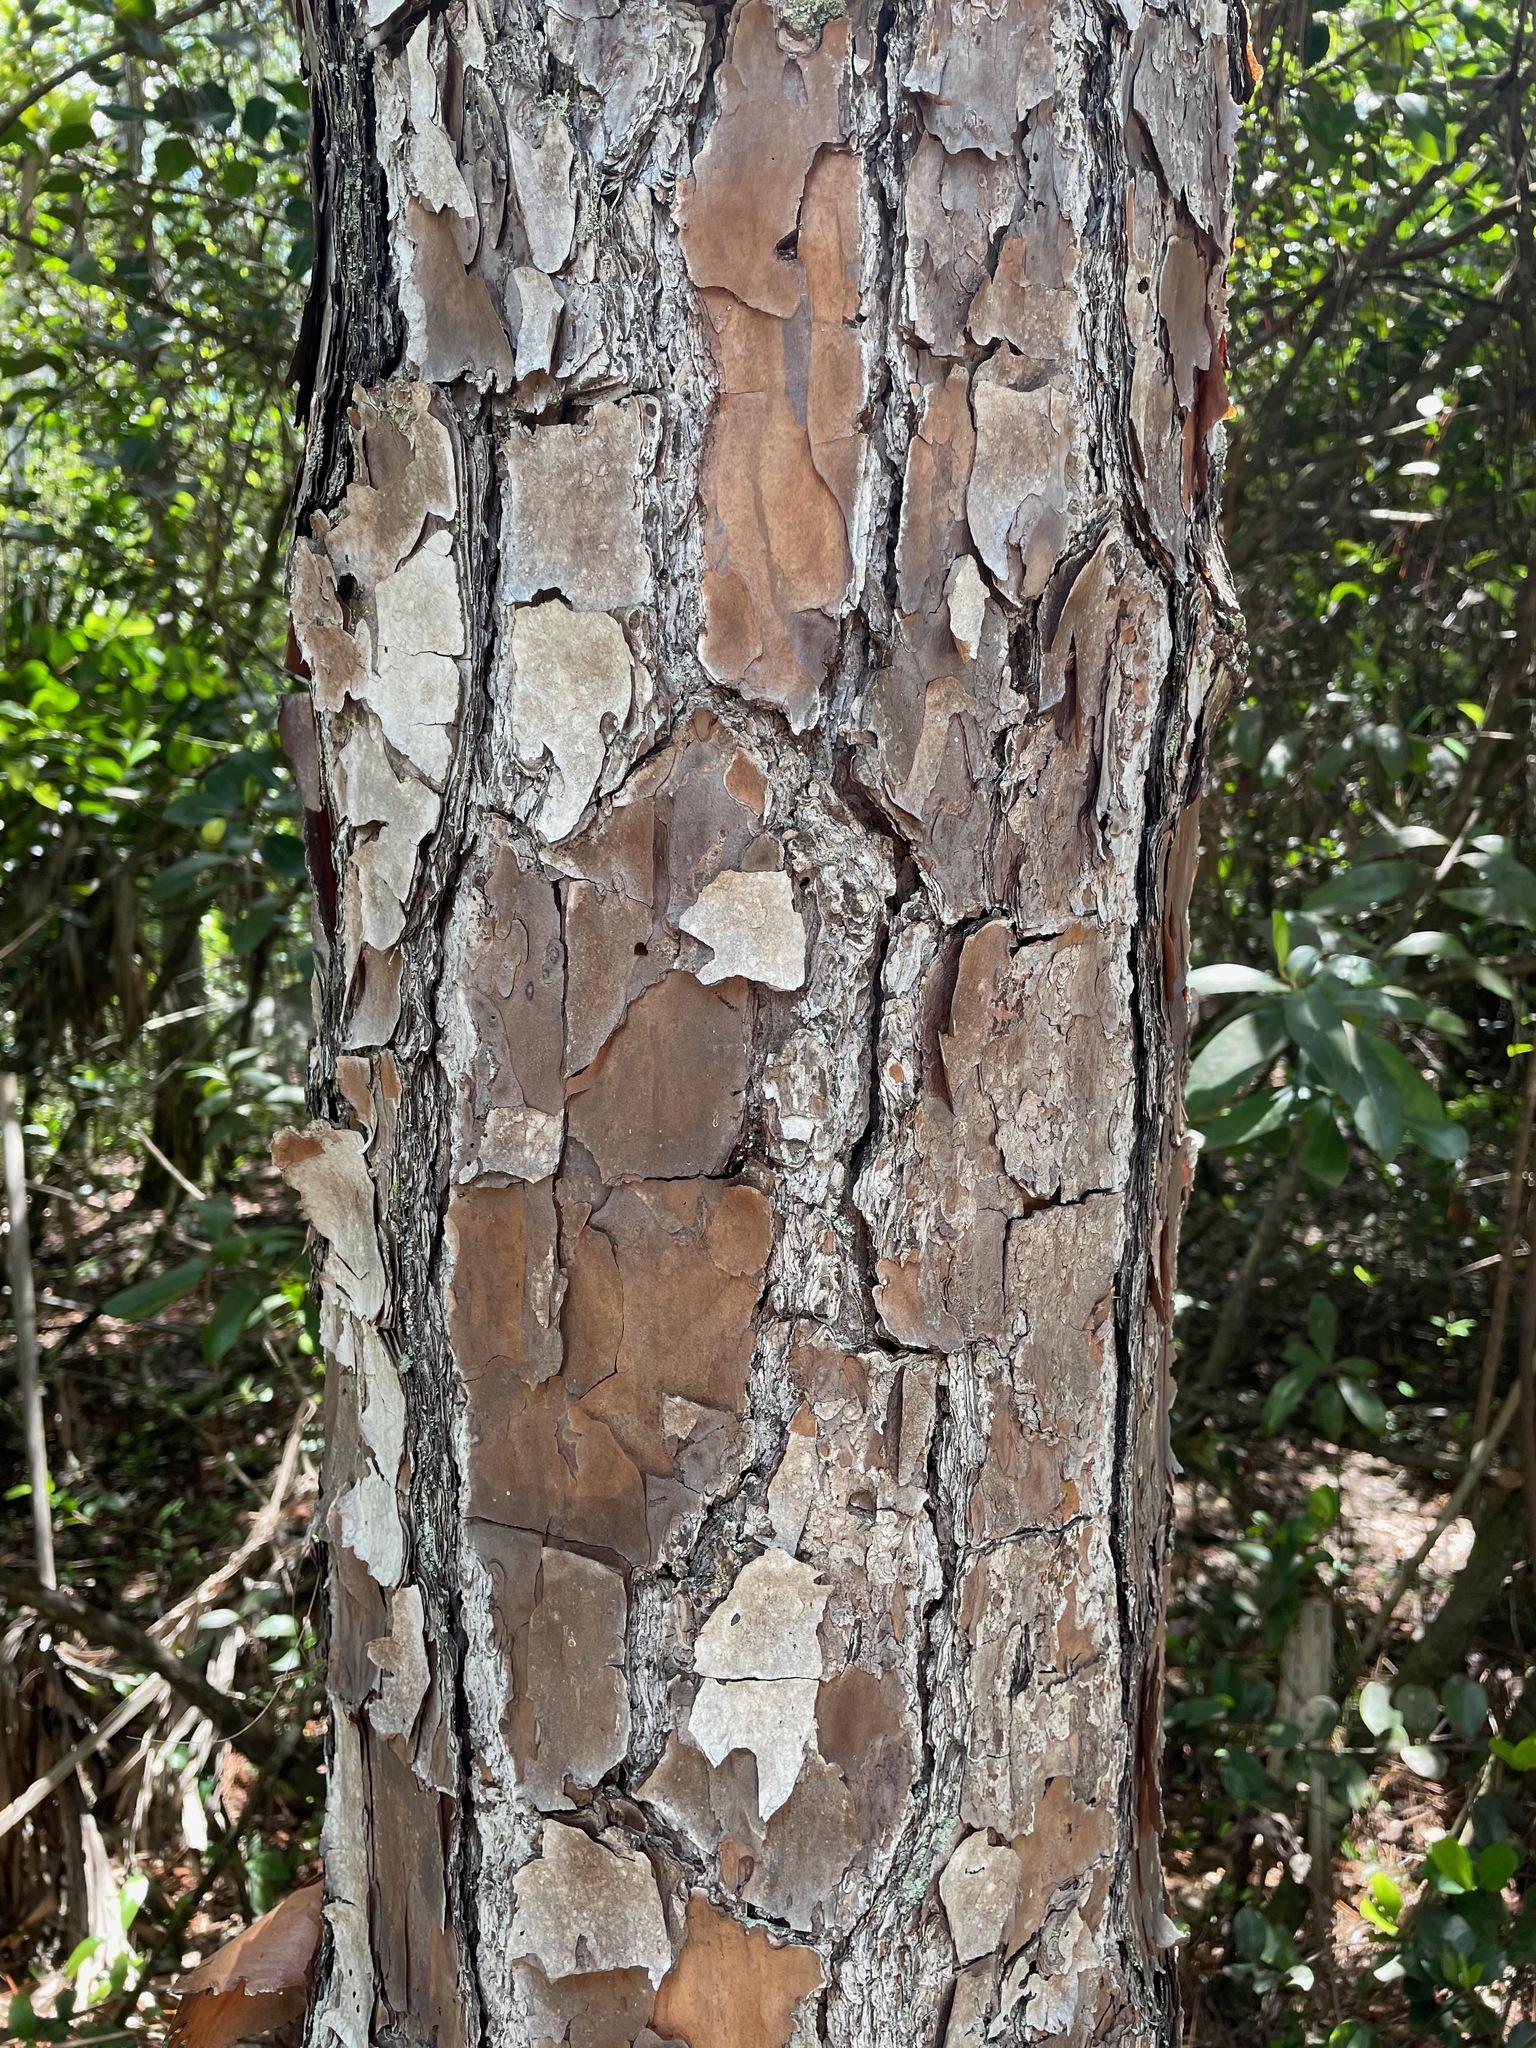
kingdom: Plantae
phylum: Tracheophyta
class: Pinopsida
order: Pinales
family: Pinaceae
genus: Pinus
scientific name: Pinus elliottii
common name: Slash pine
